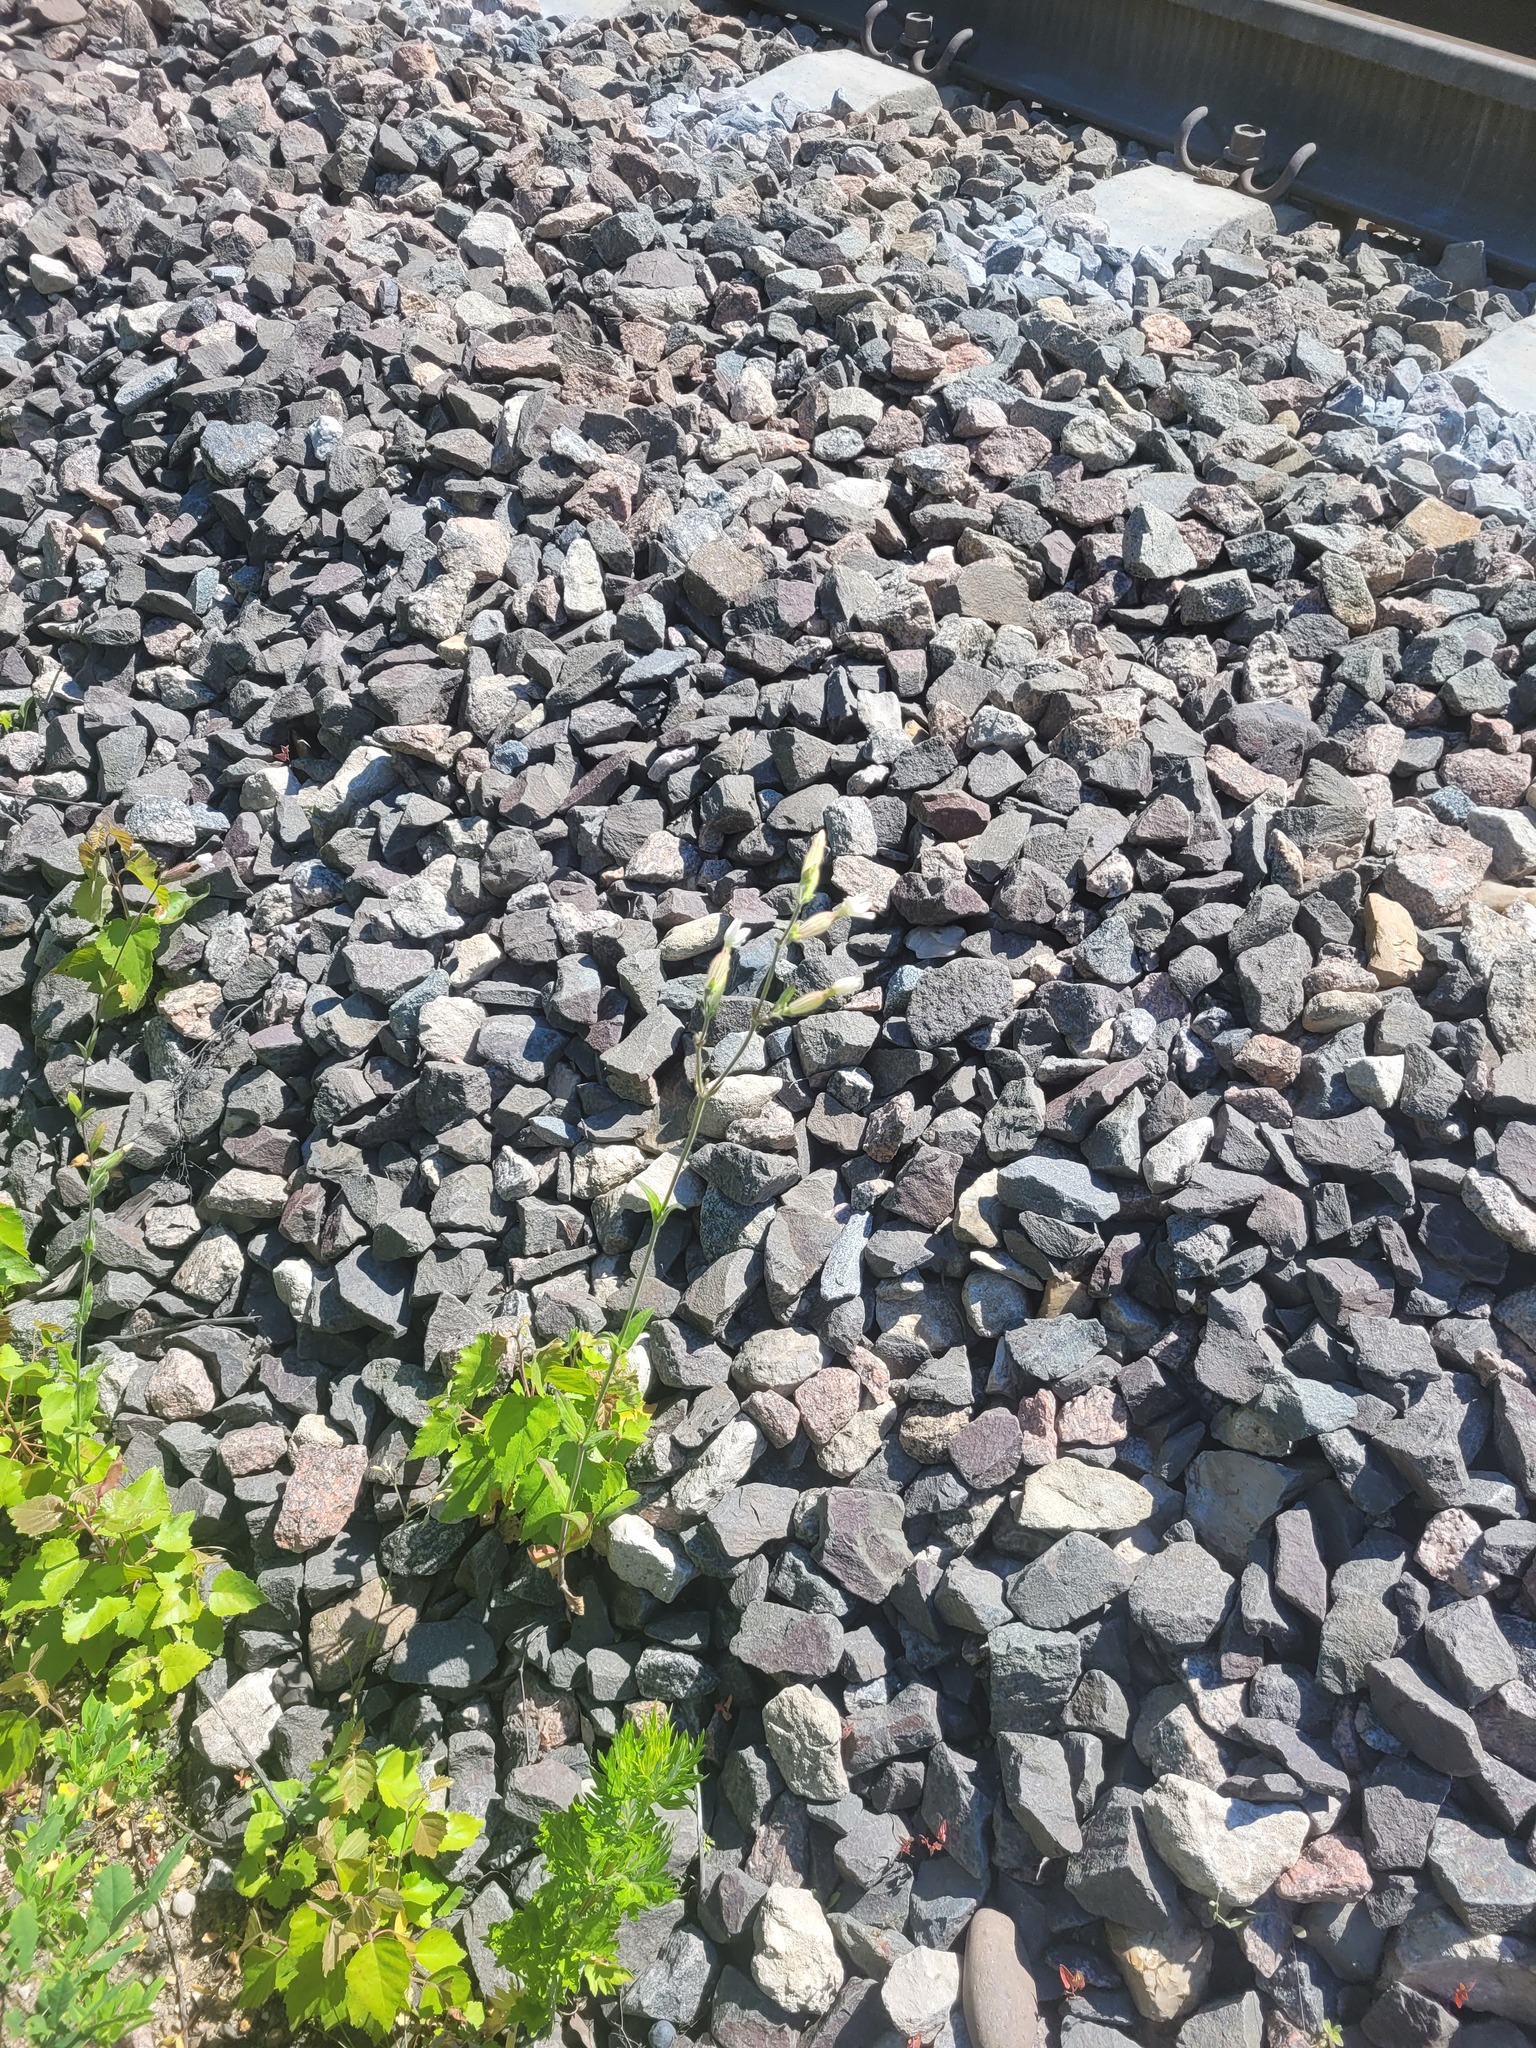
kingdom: Plantae
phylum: Tracheophyta
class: Magnoliopsida
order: Caryophyllales
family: Caryophyllaceae
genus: Silene
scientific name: Silene latifolia
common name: White campion
